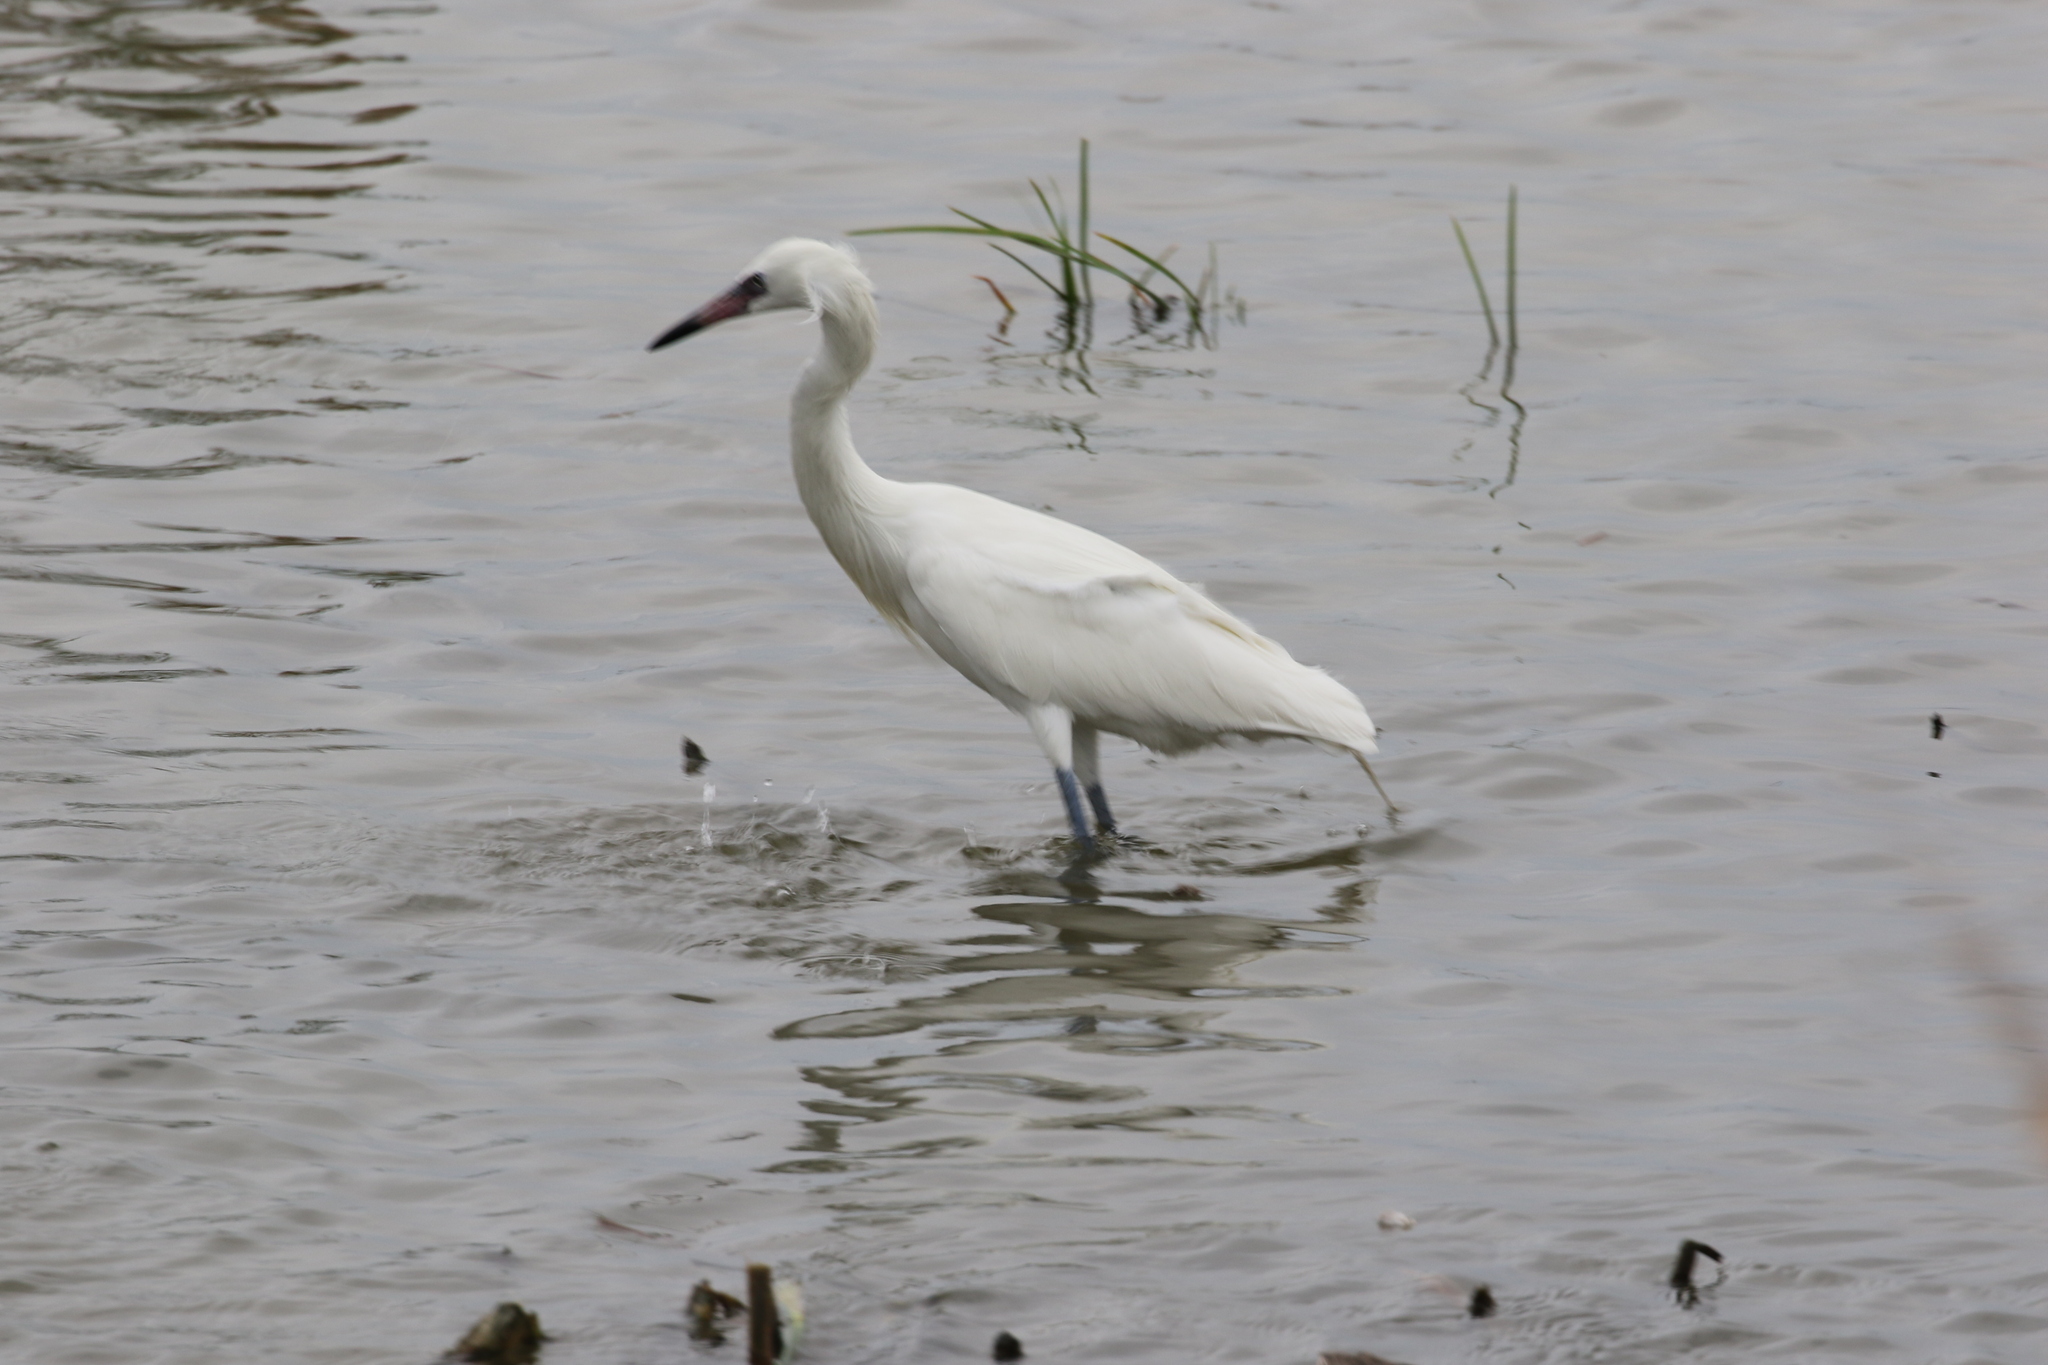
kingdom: Animalia
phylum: Chordata
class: Aves
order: Pelecaniformes
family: Ardeidae
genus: Egretta
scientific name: Egretta rufescens
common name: Reddish egret
